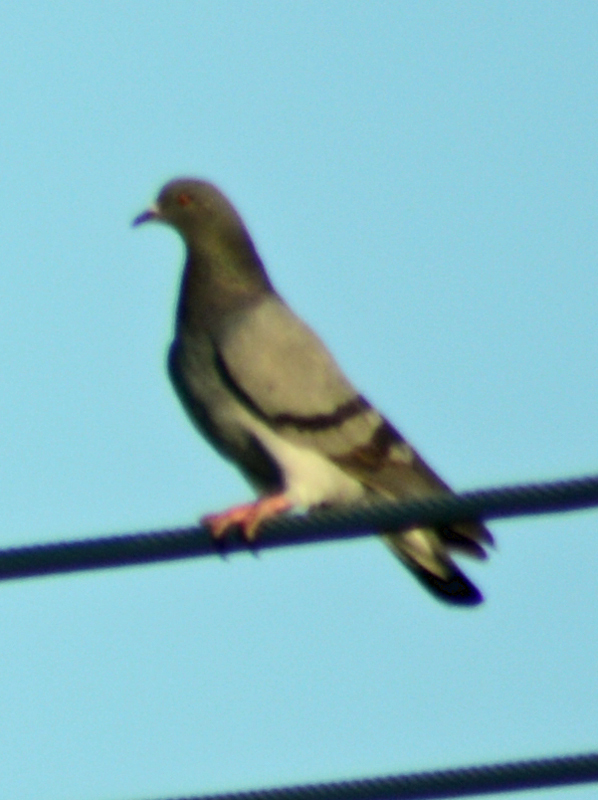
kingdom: Animalia
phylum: Chordata
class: Aves
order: Columbiformes
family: Columbidae
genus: Columba
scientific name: Columba livia
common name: Rock pigeon
